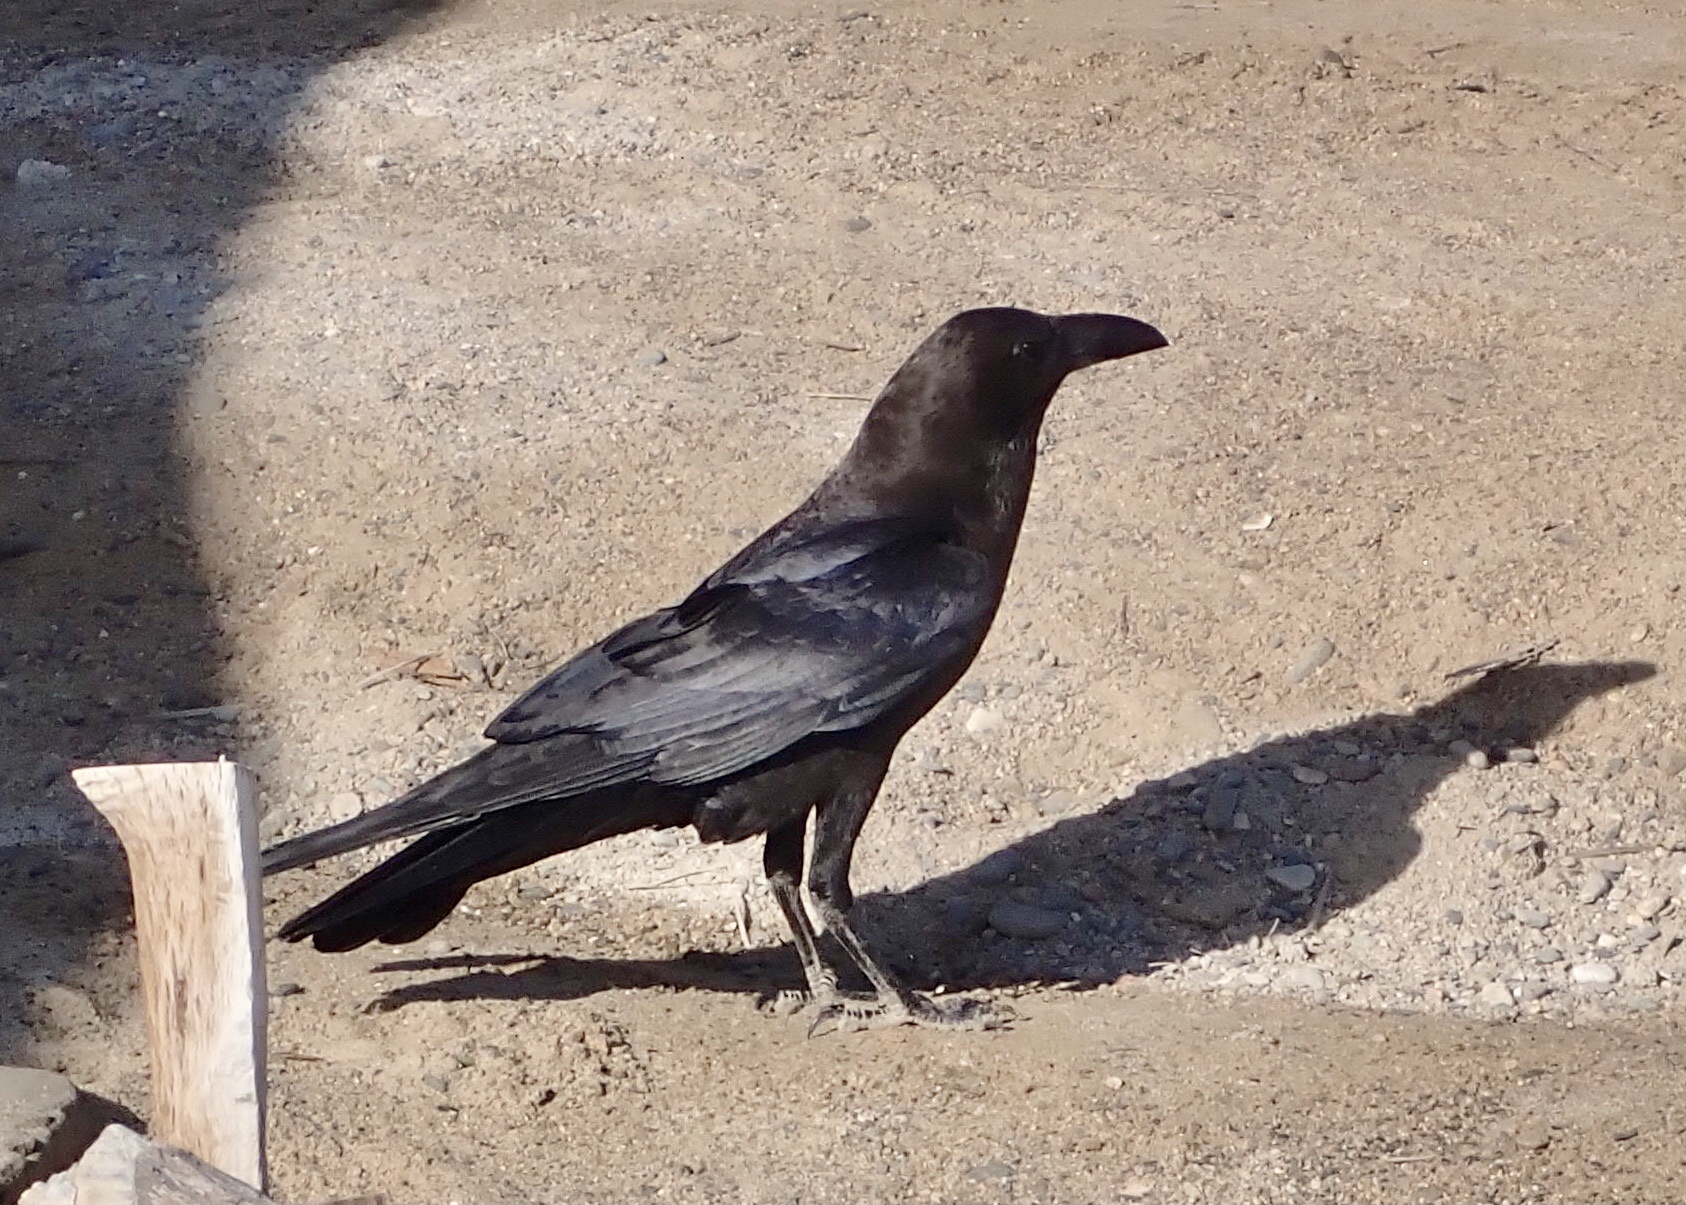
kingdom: Animalia
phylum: Chordata
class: Aves
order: Passeriformes
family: Corvidae
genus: Corvus
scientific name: Corvus ruficollis
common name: Brown-necked raven
